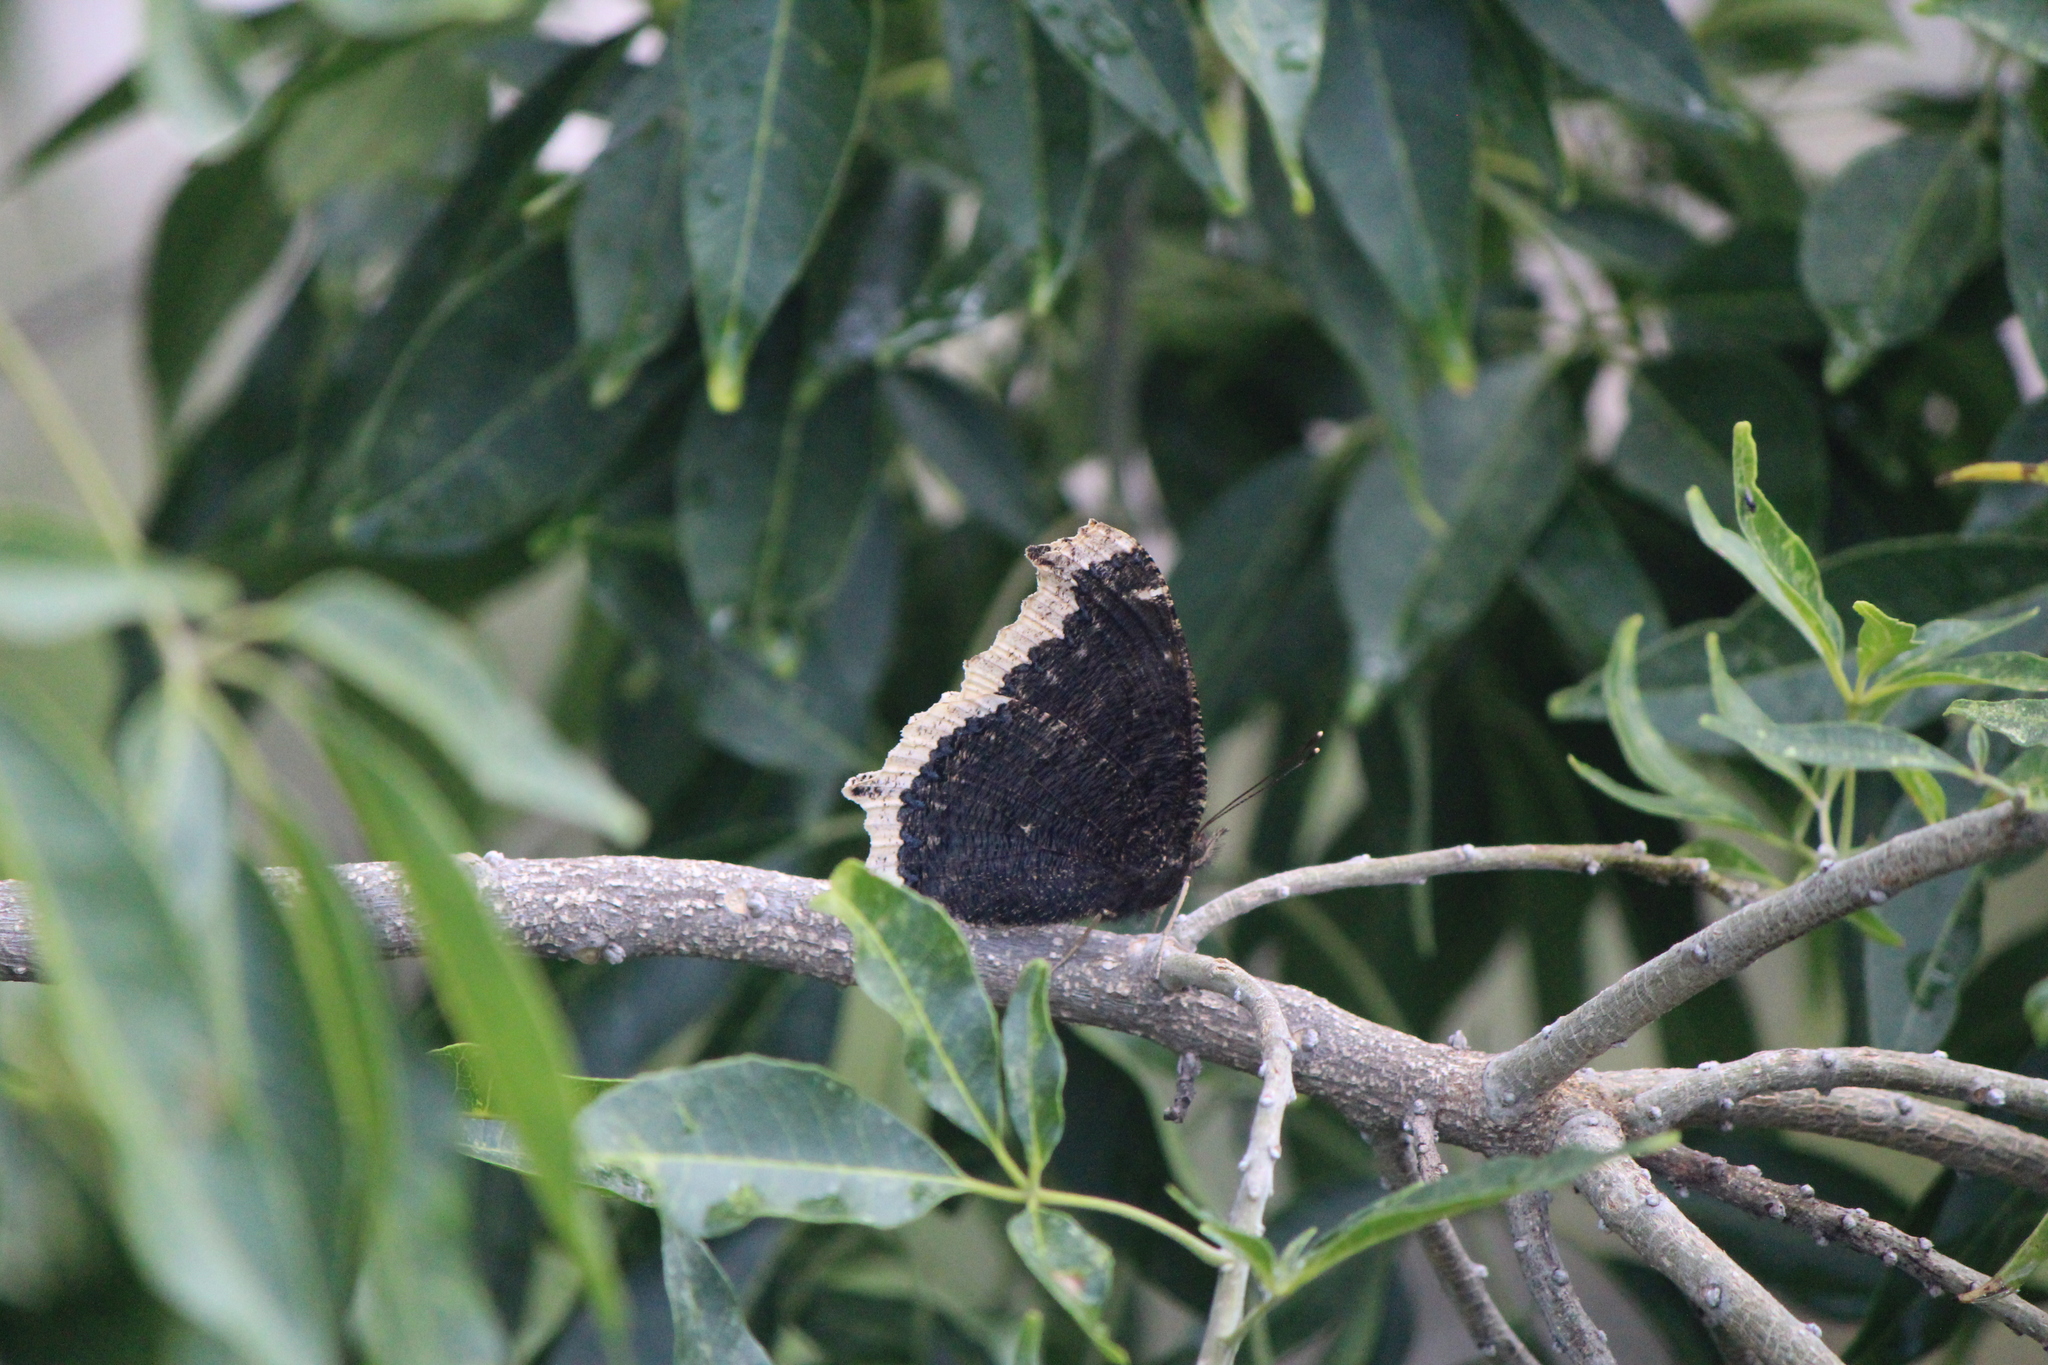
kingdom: Animalia
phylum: Arthropoda
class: Insecta
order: Lepidoptera
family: Nymphalidae
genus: Nymphalis
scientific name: Nymphalis antiopa
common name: Camberwell beauty
